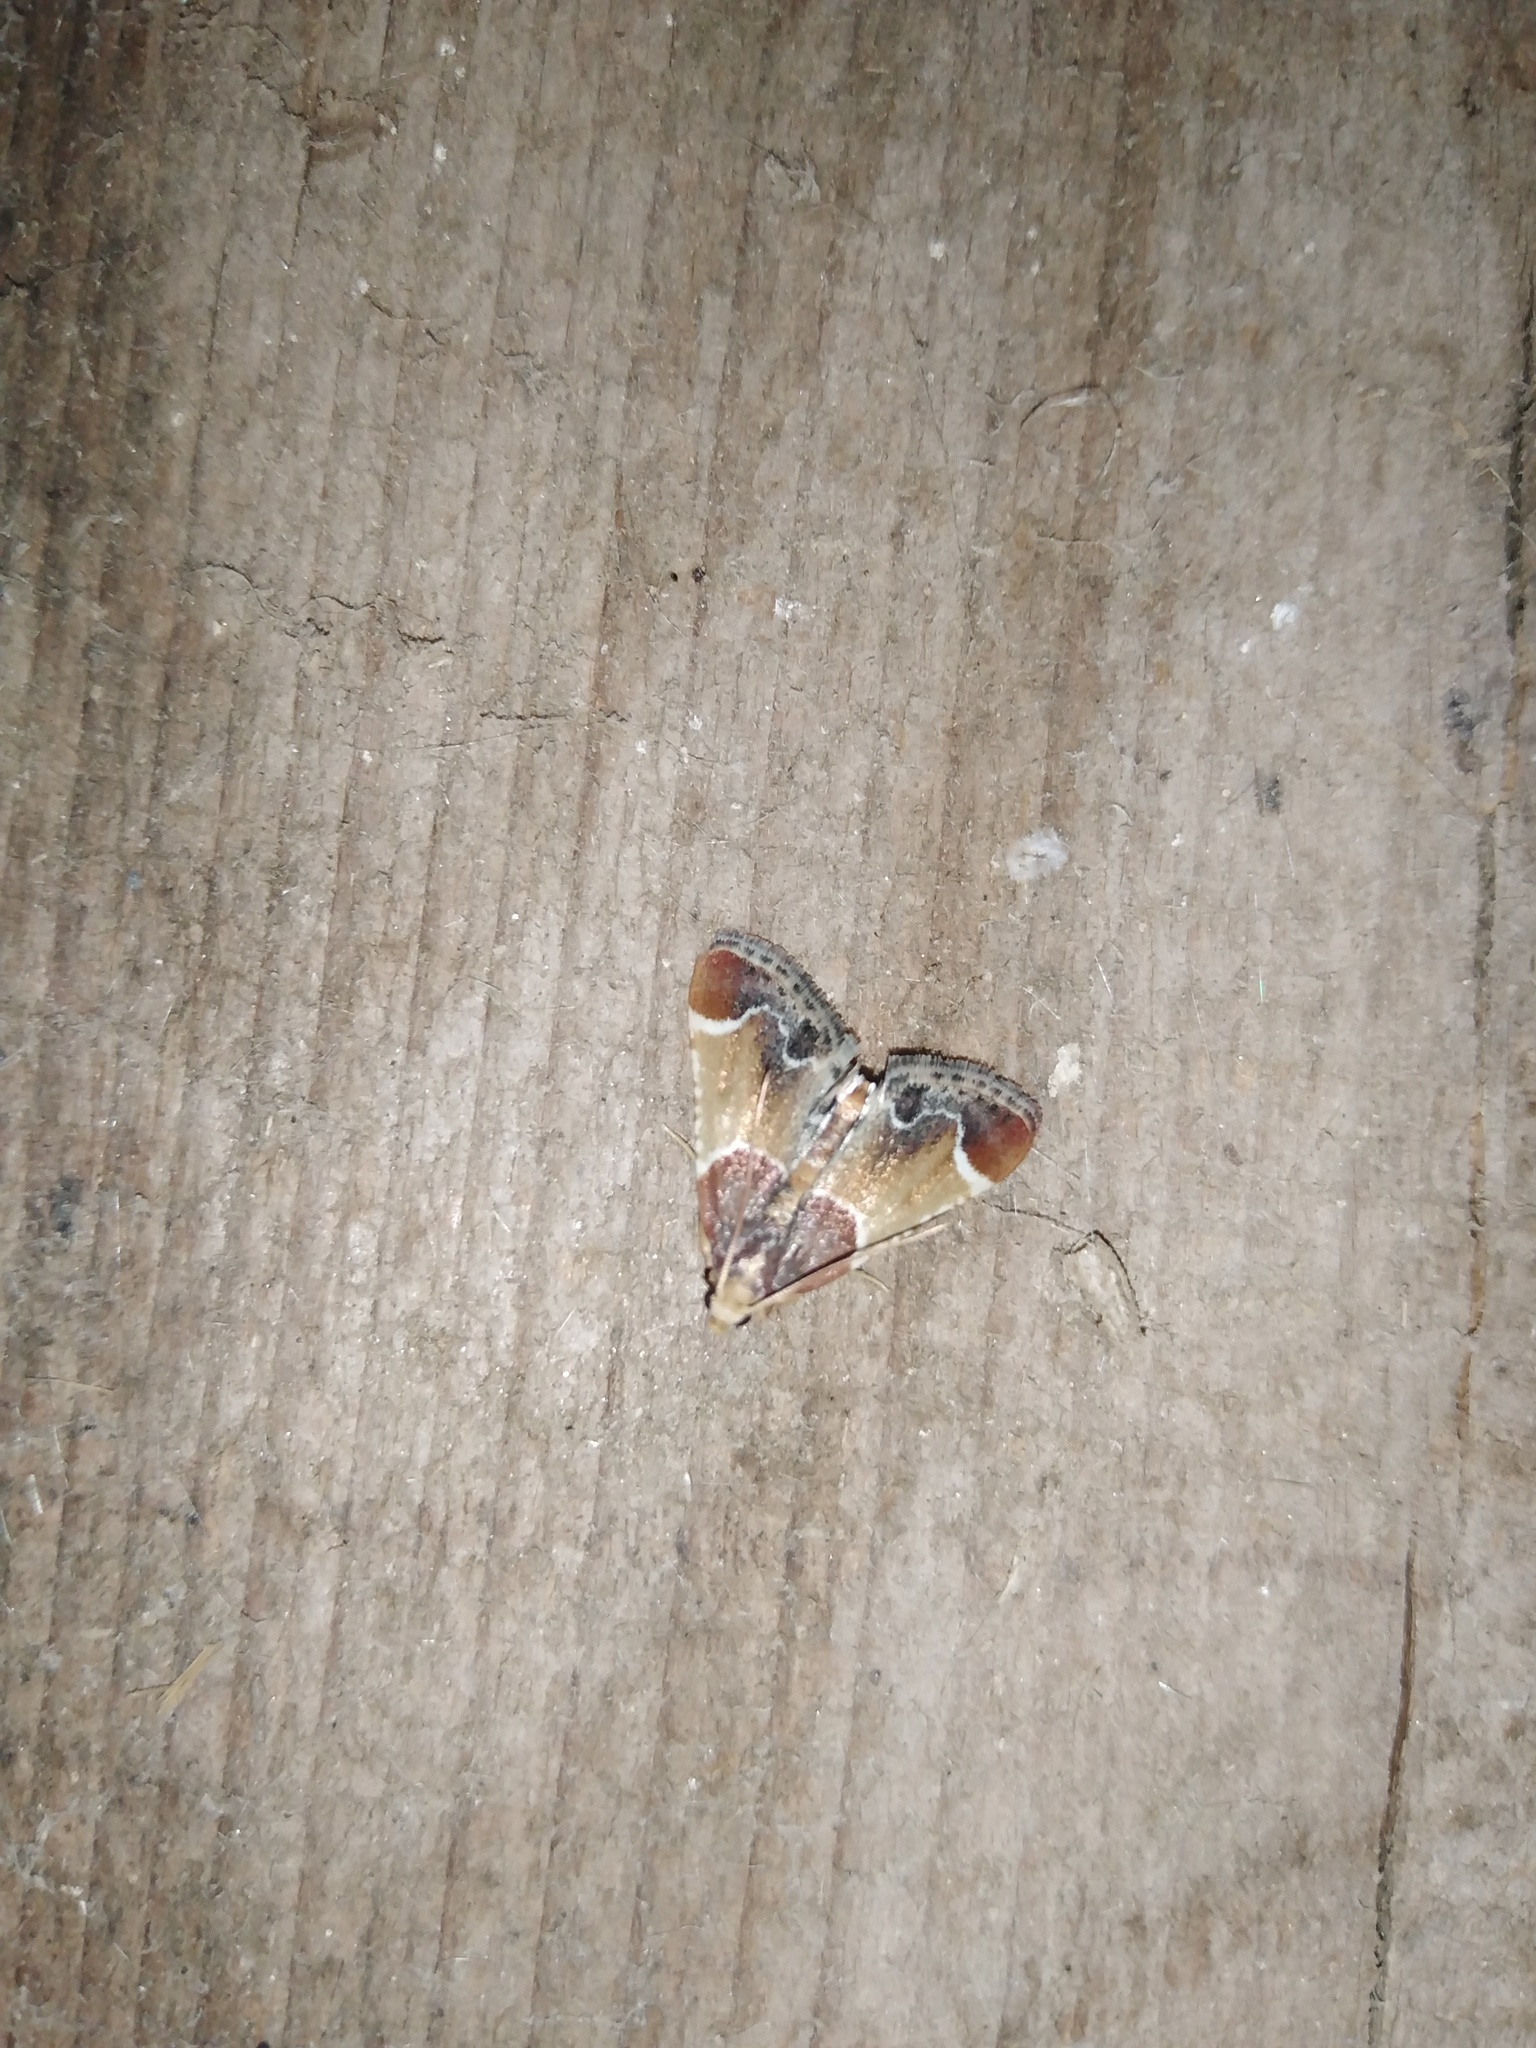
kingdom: Animalia
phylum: Arthropoda
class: Insecta
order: Lepidoptera
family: Pyralidae
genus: Pyralis
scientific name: Pyralis farinalis
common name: Meal moth
